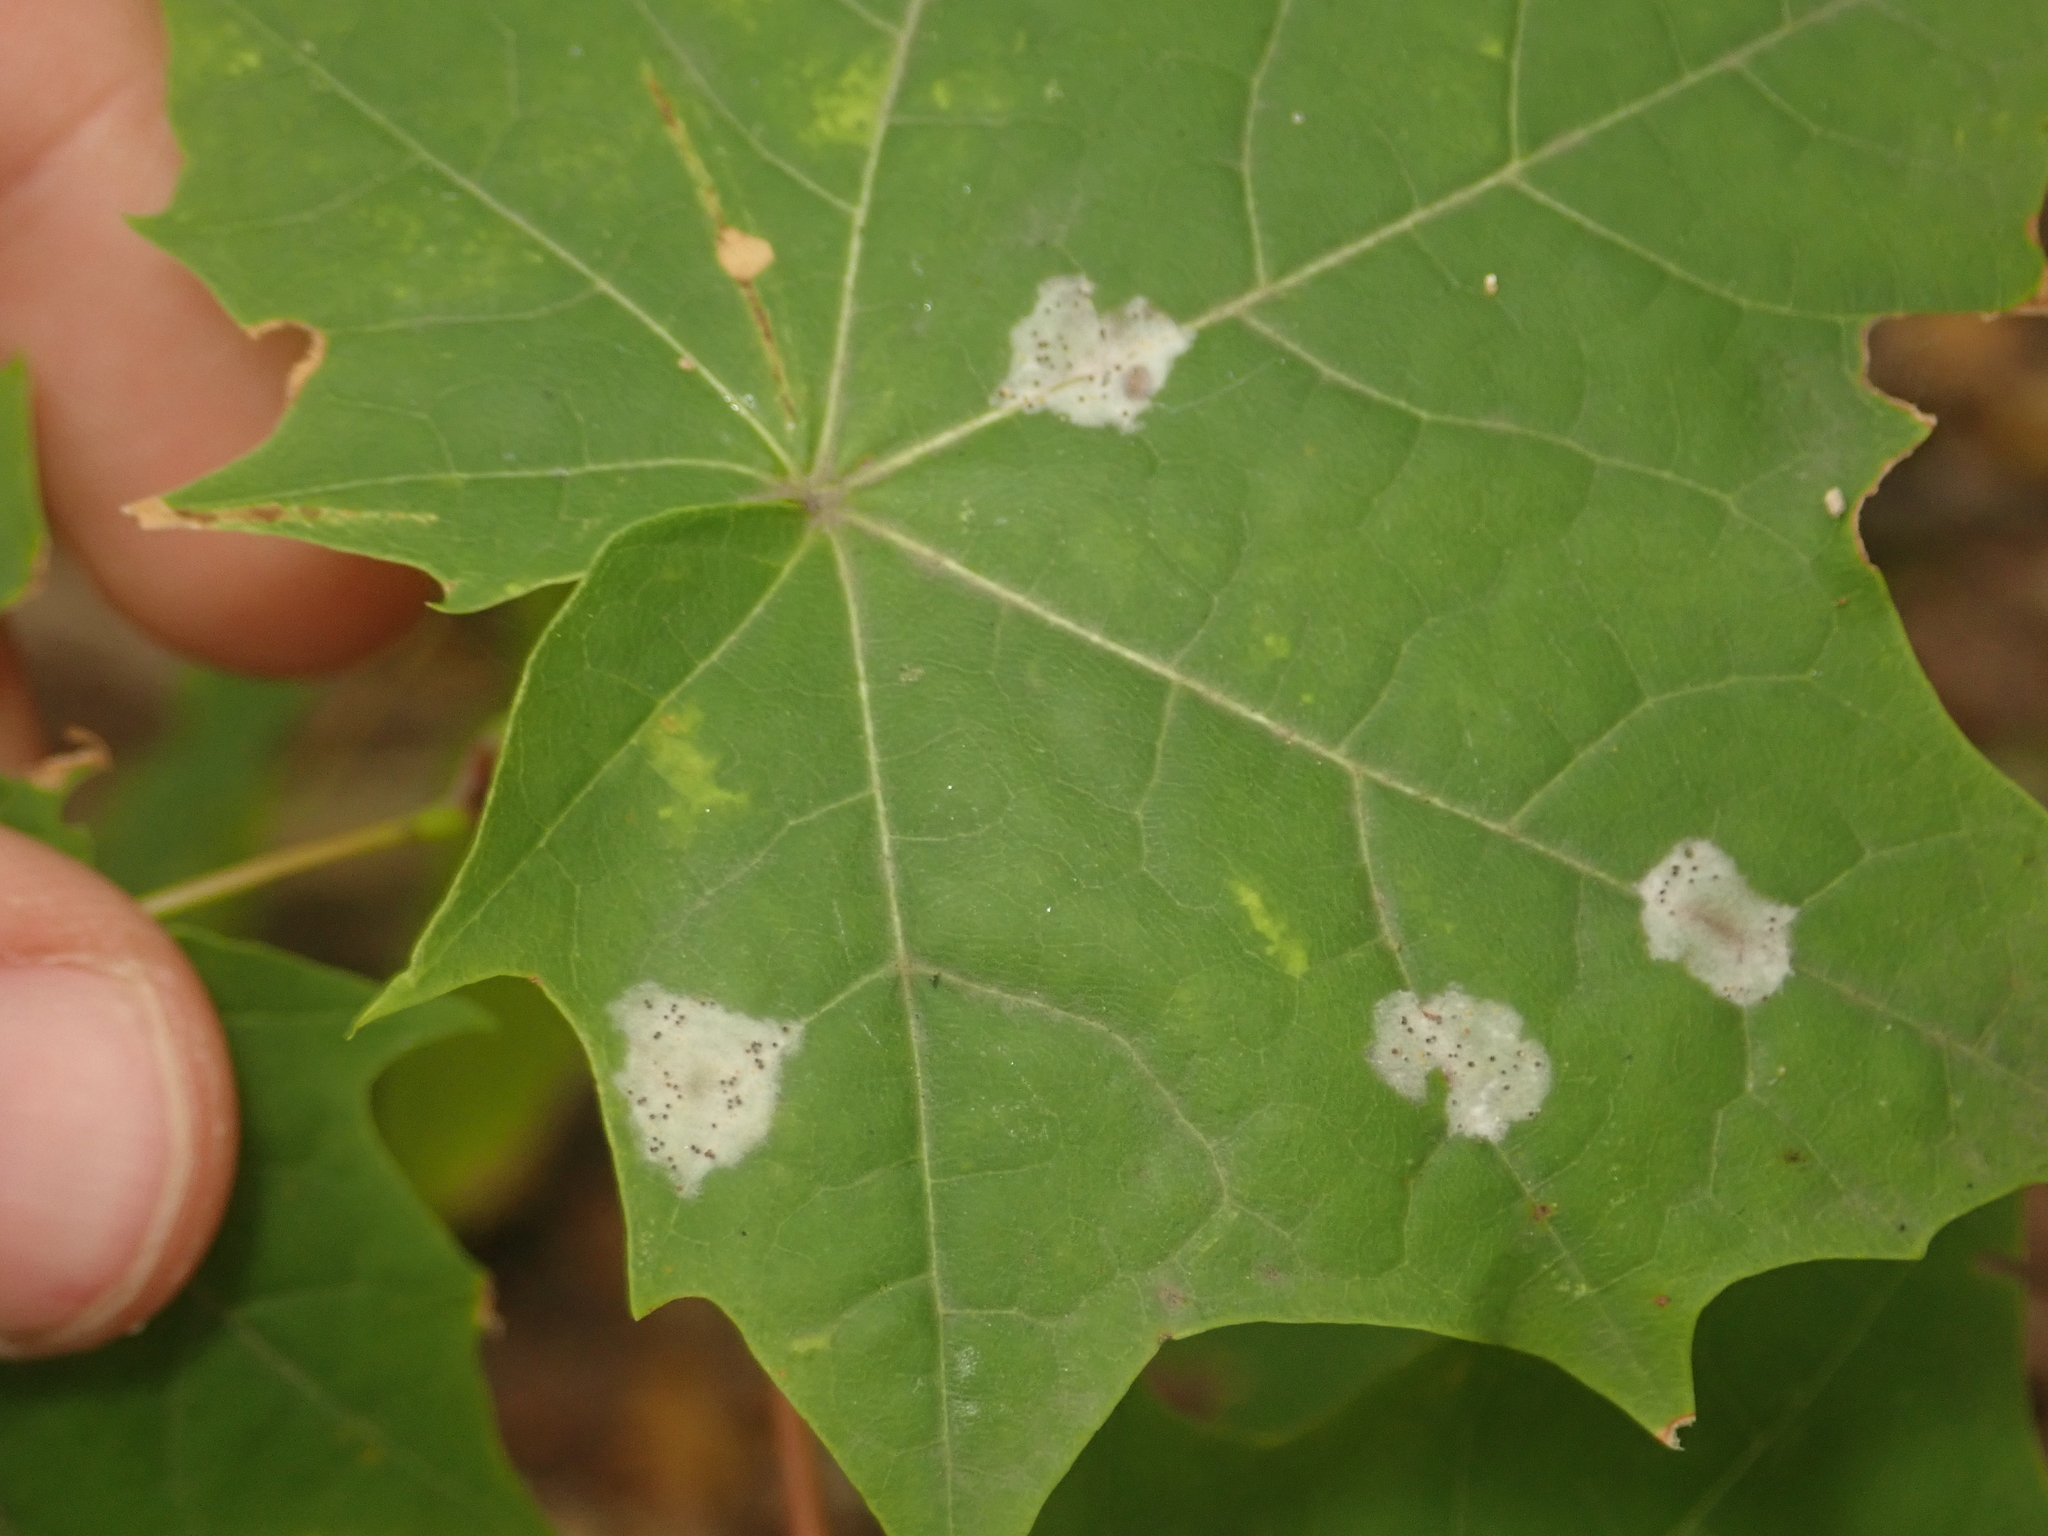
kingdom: Fungi
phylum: Ascomycota
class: Leotiomycetes
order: Helotiales
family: Erysiphaceae
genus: Sawadaea
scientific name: Sawadaea tulasnei
